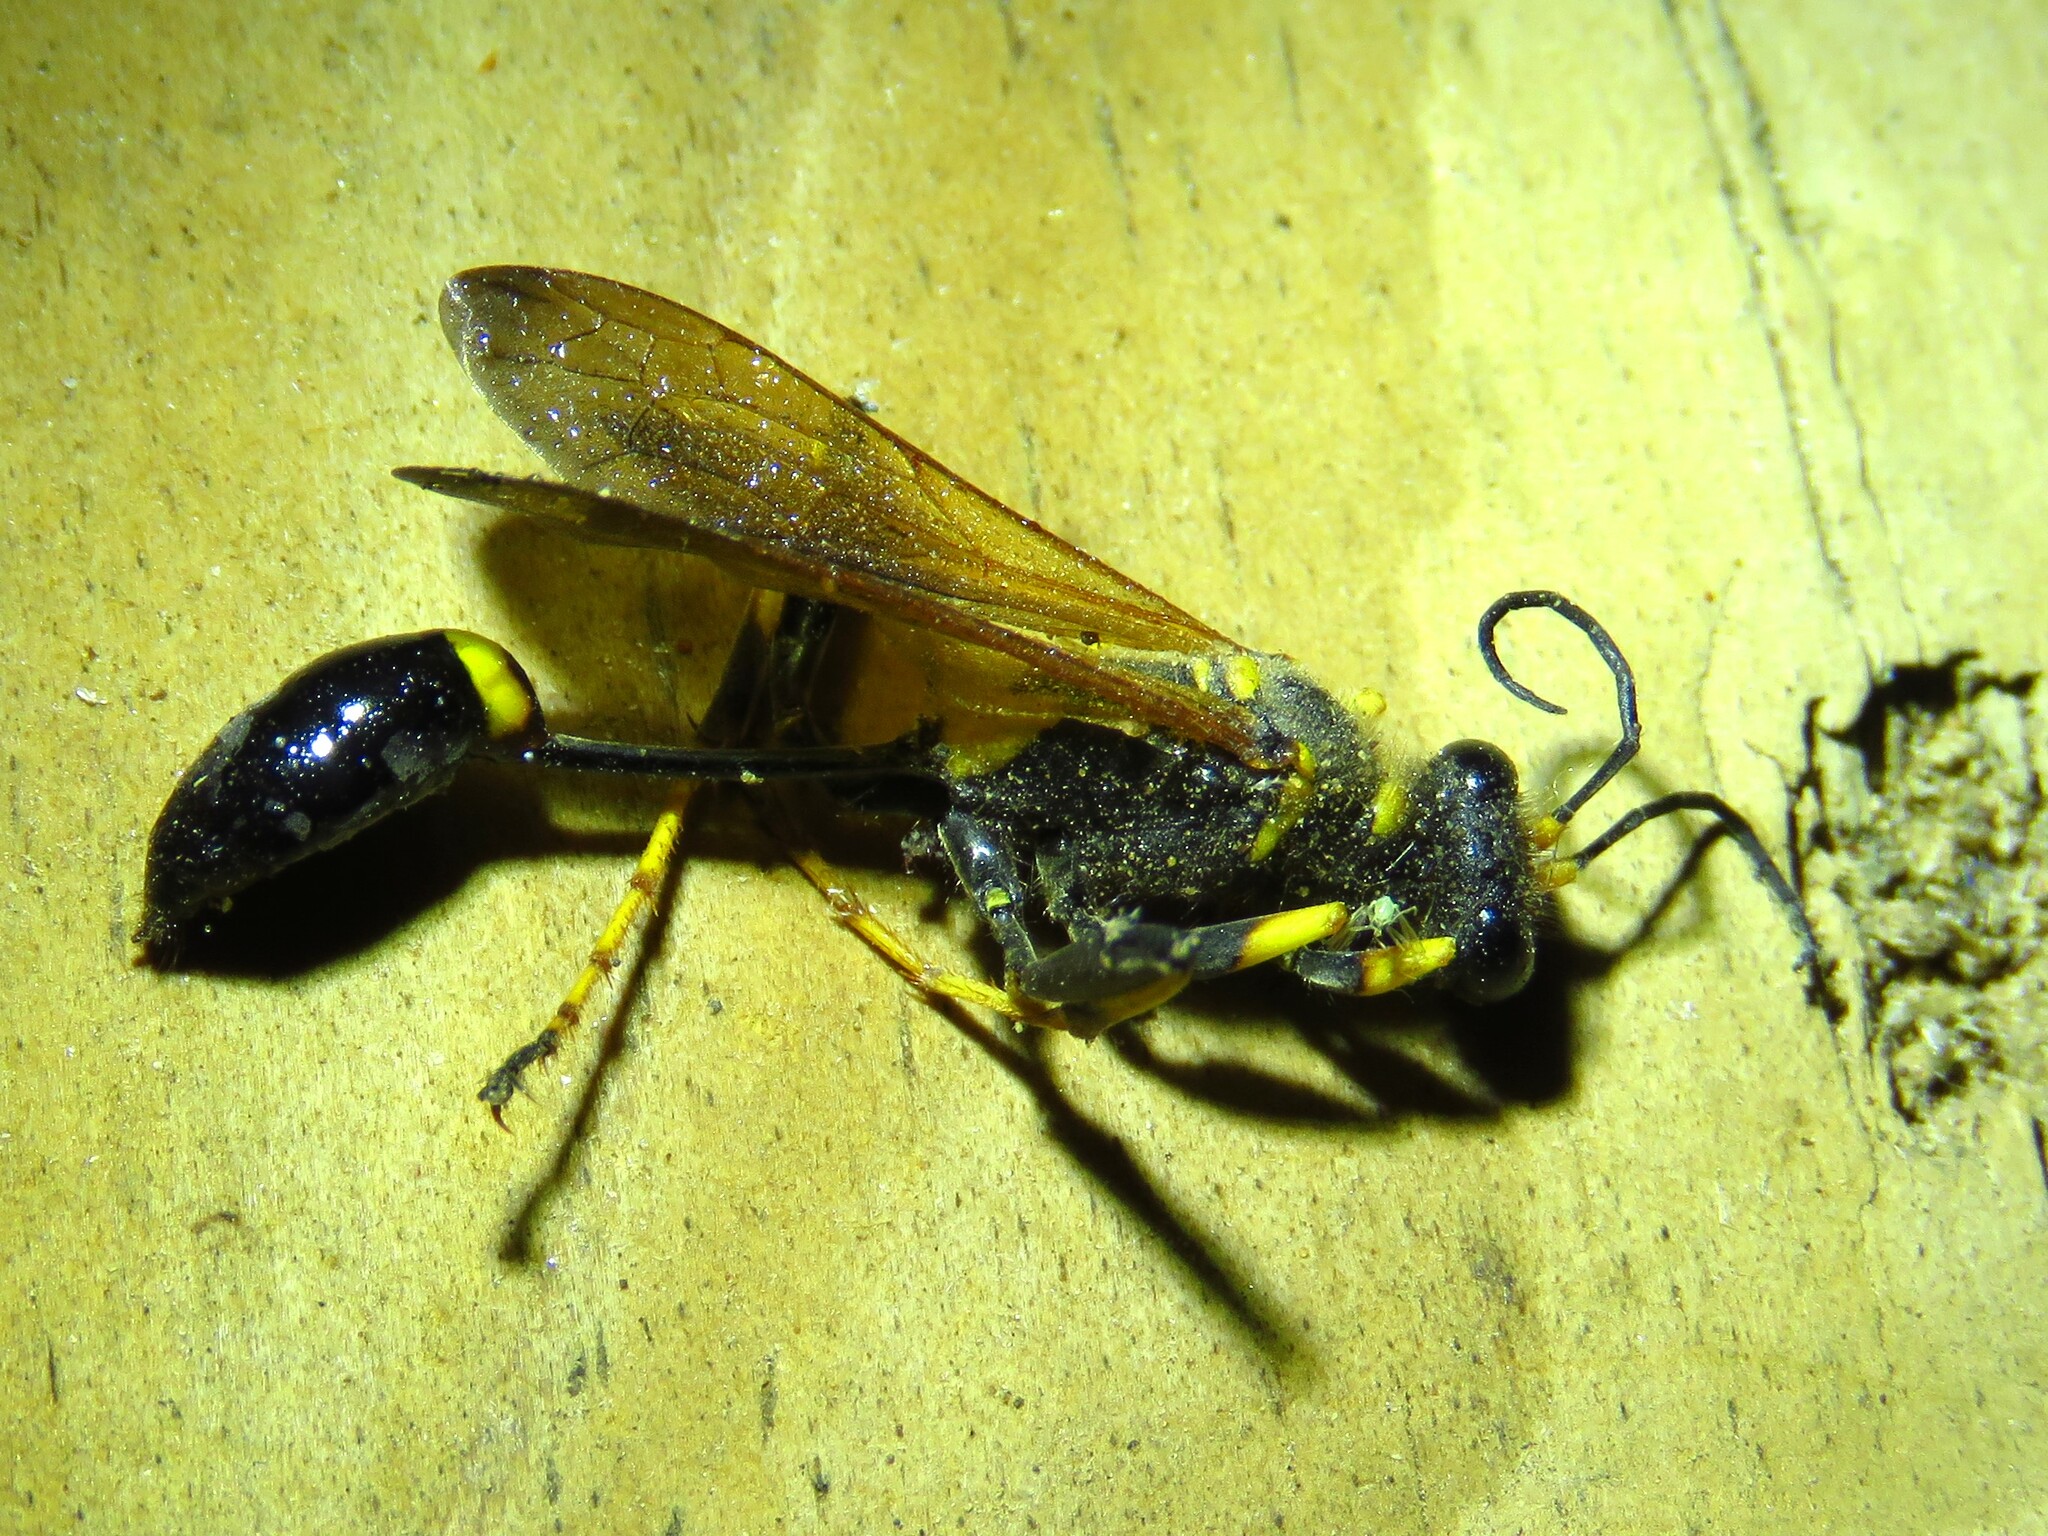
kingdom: Animalia
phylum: Arthropoda
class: Insecta
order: Hymenoptera
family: Sphecidae
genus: Sceliphron
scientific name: Sceliphron caementarium
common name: Mud dauber
